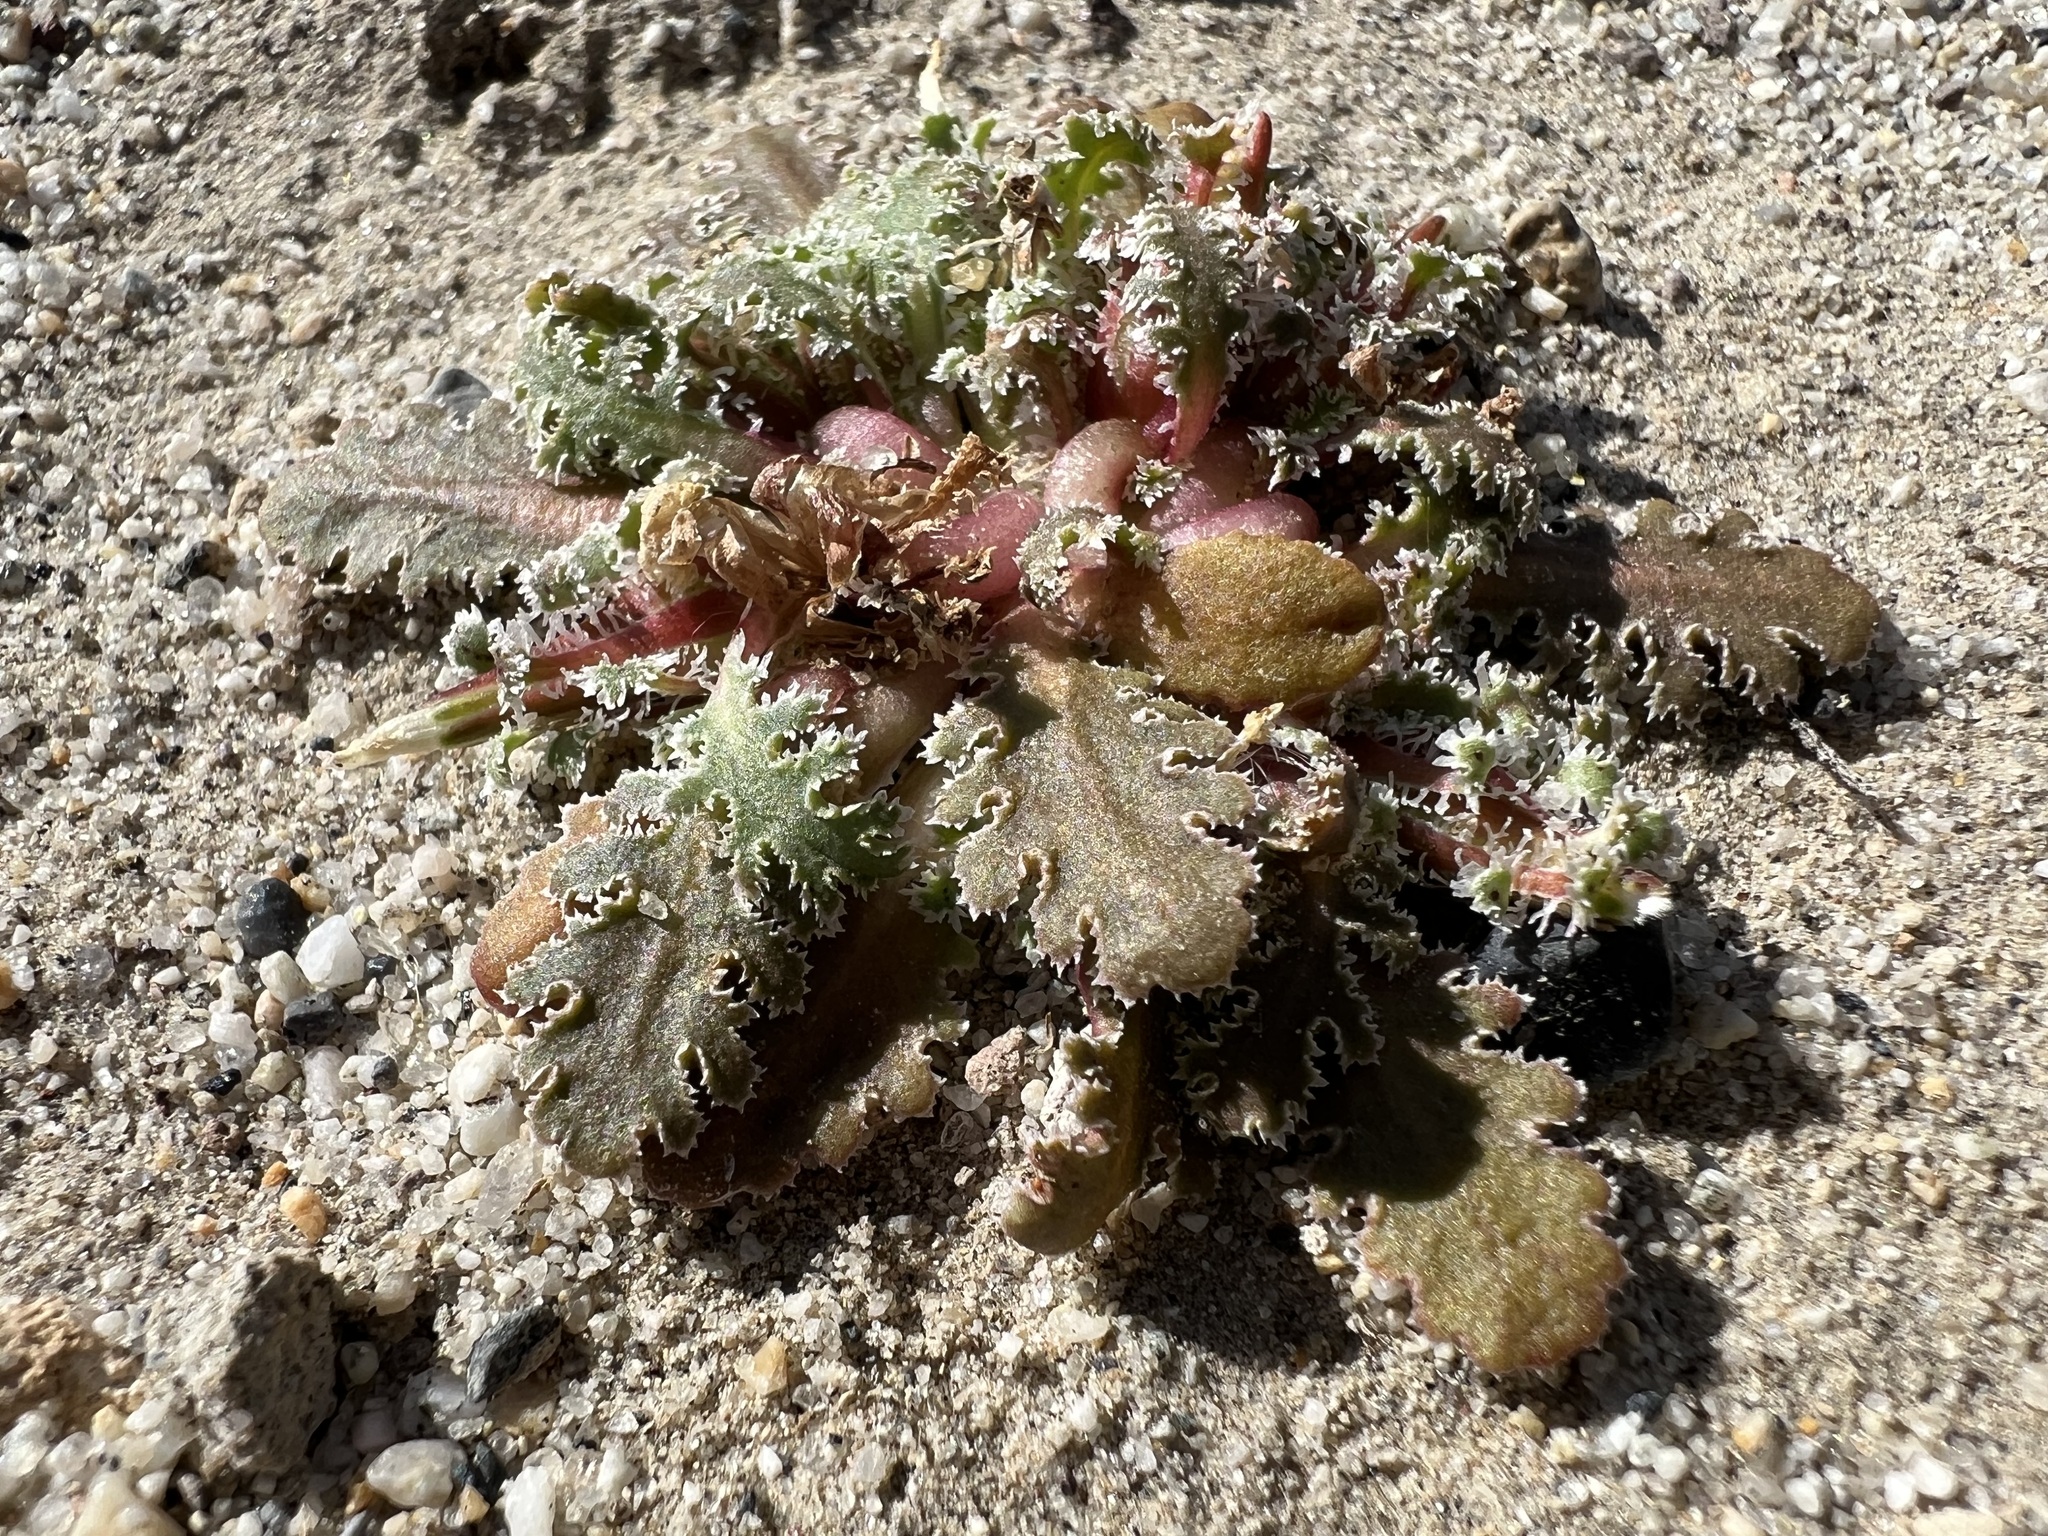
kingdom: Plantae
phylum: Tracheophyta
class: Magnoliopsida
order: Asterales
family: Asteraceae
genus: Glyptopleura
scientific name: Glyptopleura marginata
